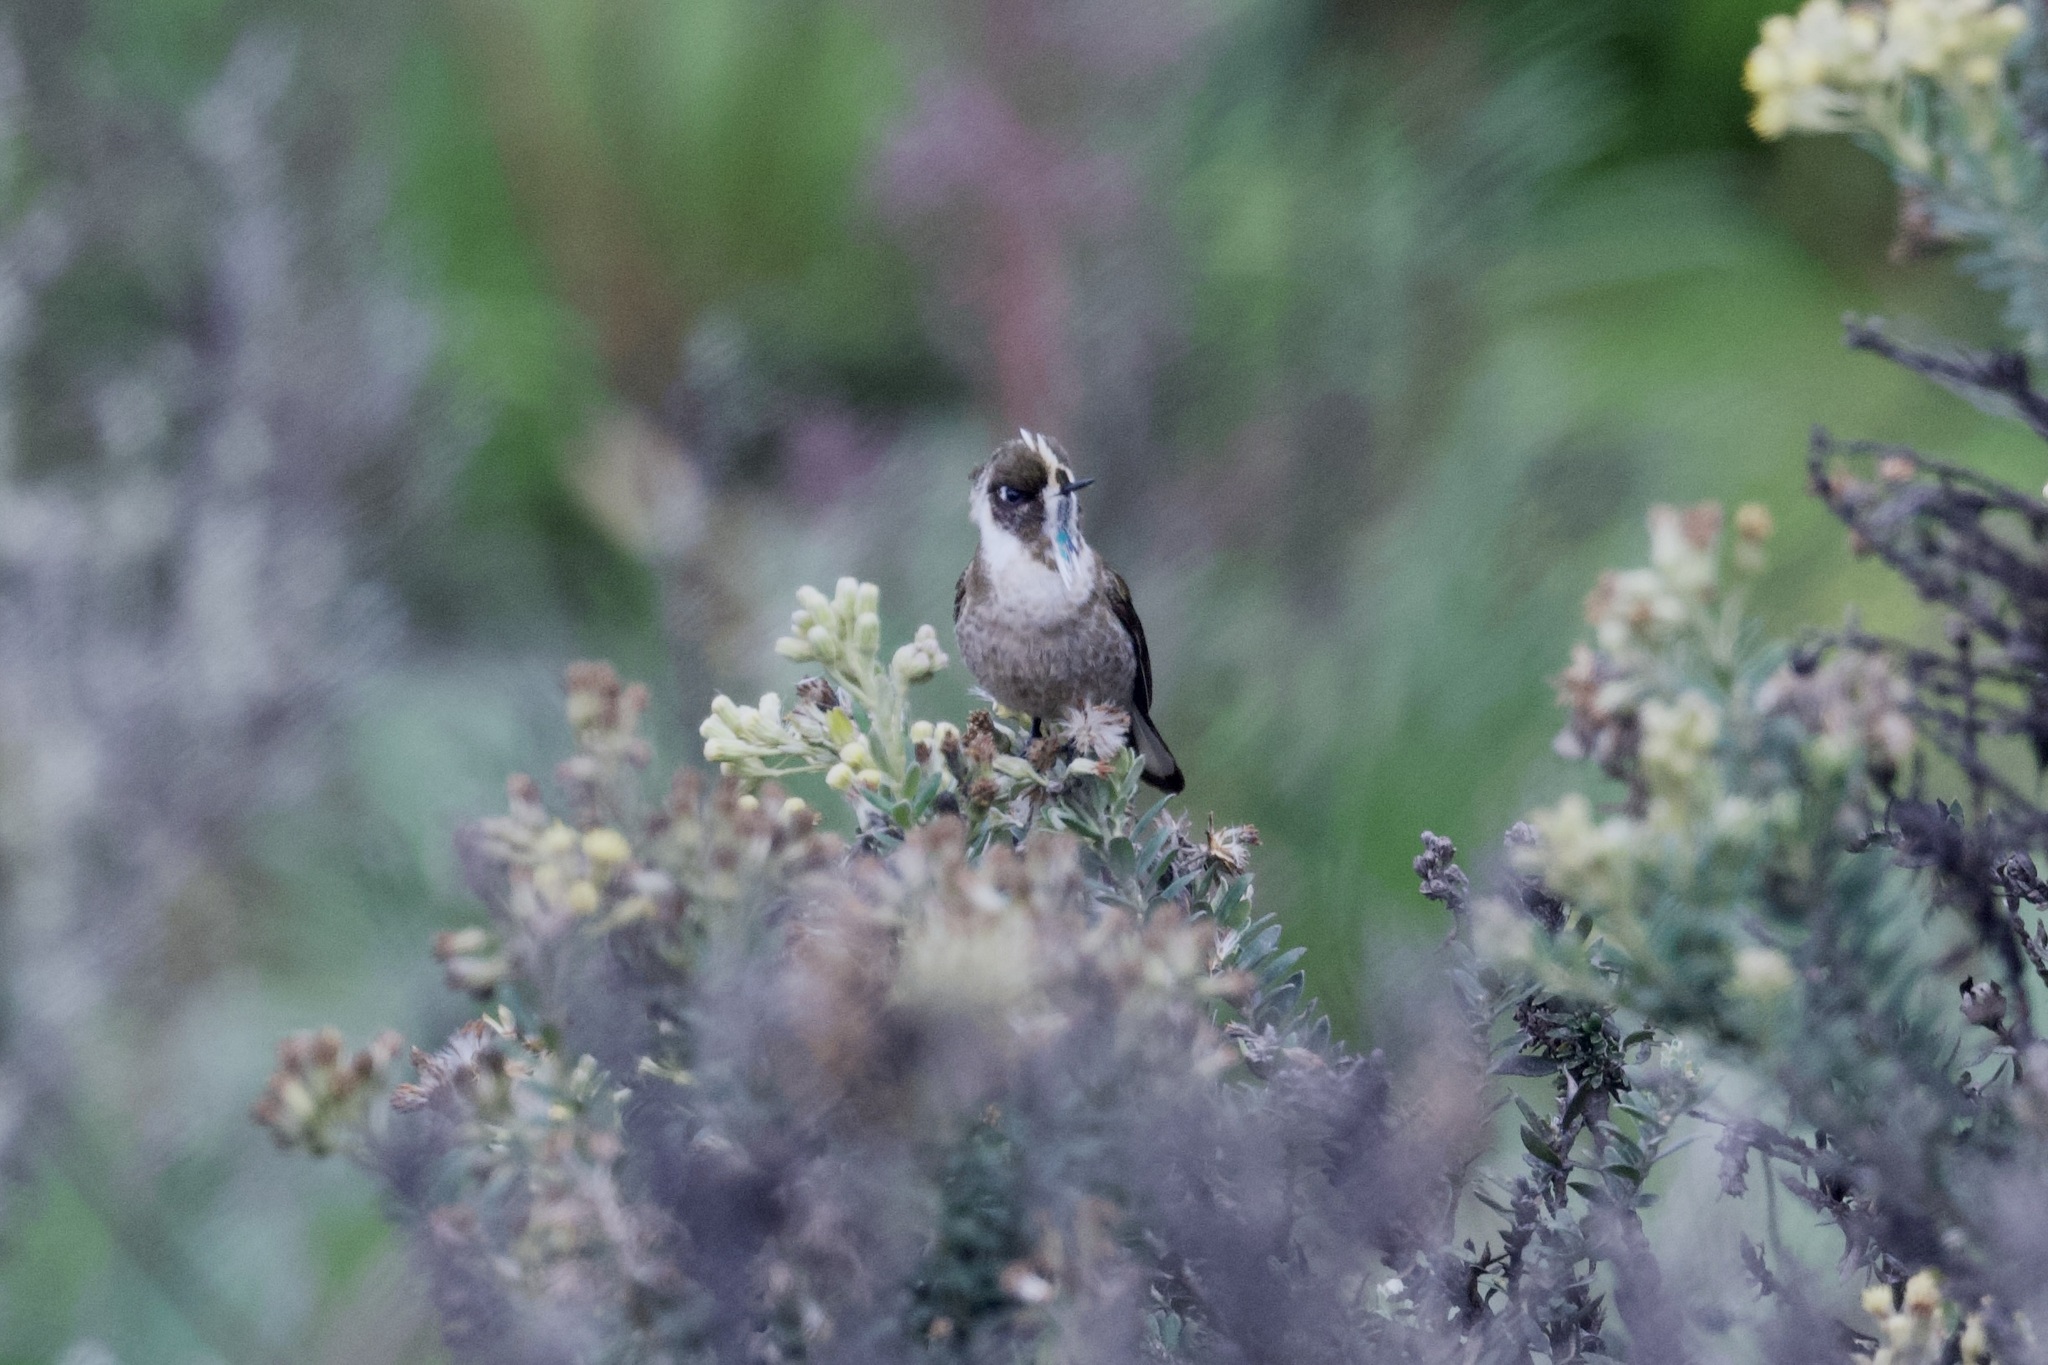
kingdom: Animalia
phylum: Chordata
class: Aves
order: Apodiformes
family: Trochilidae
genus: Oxypogon
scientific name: Oxypogon guerinii
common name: Bearded helmetcrest
